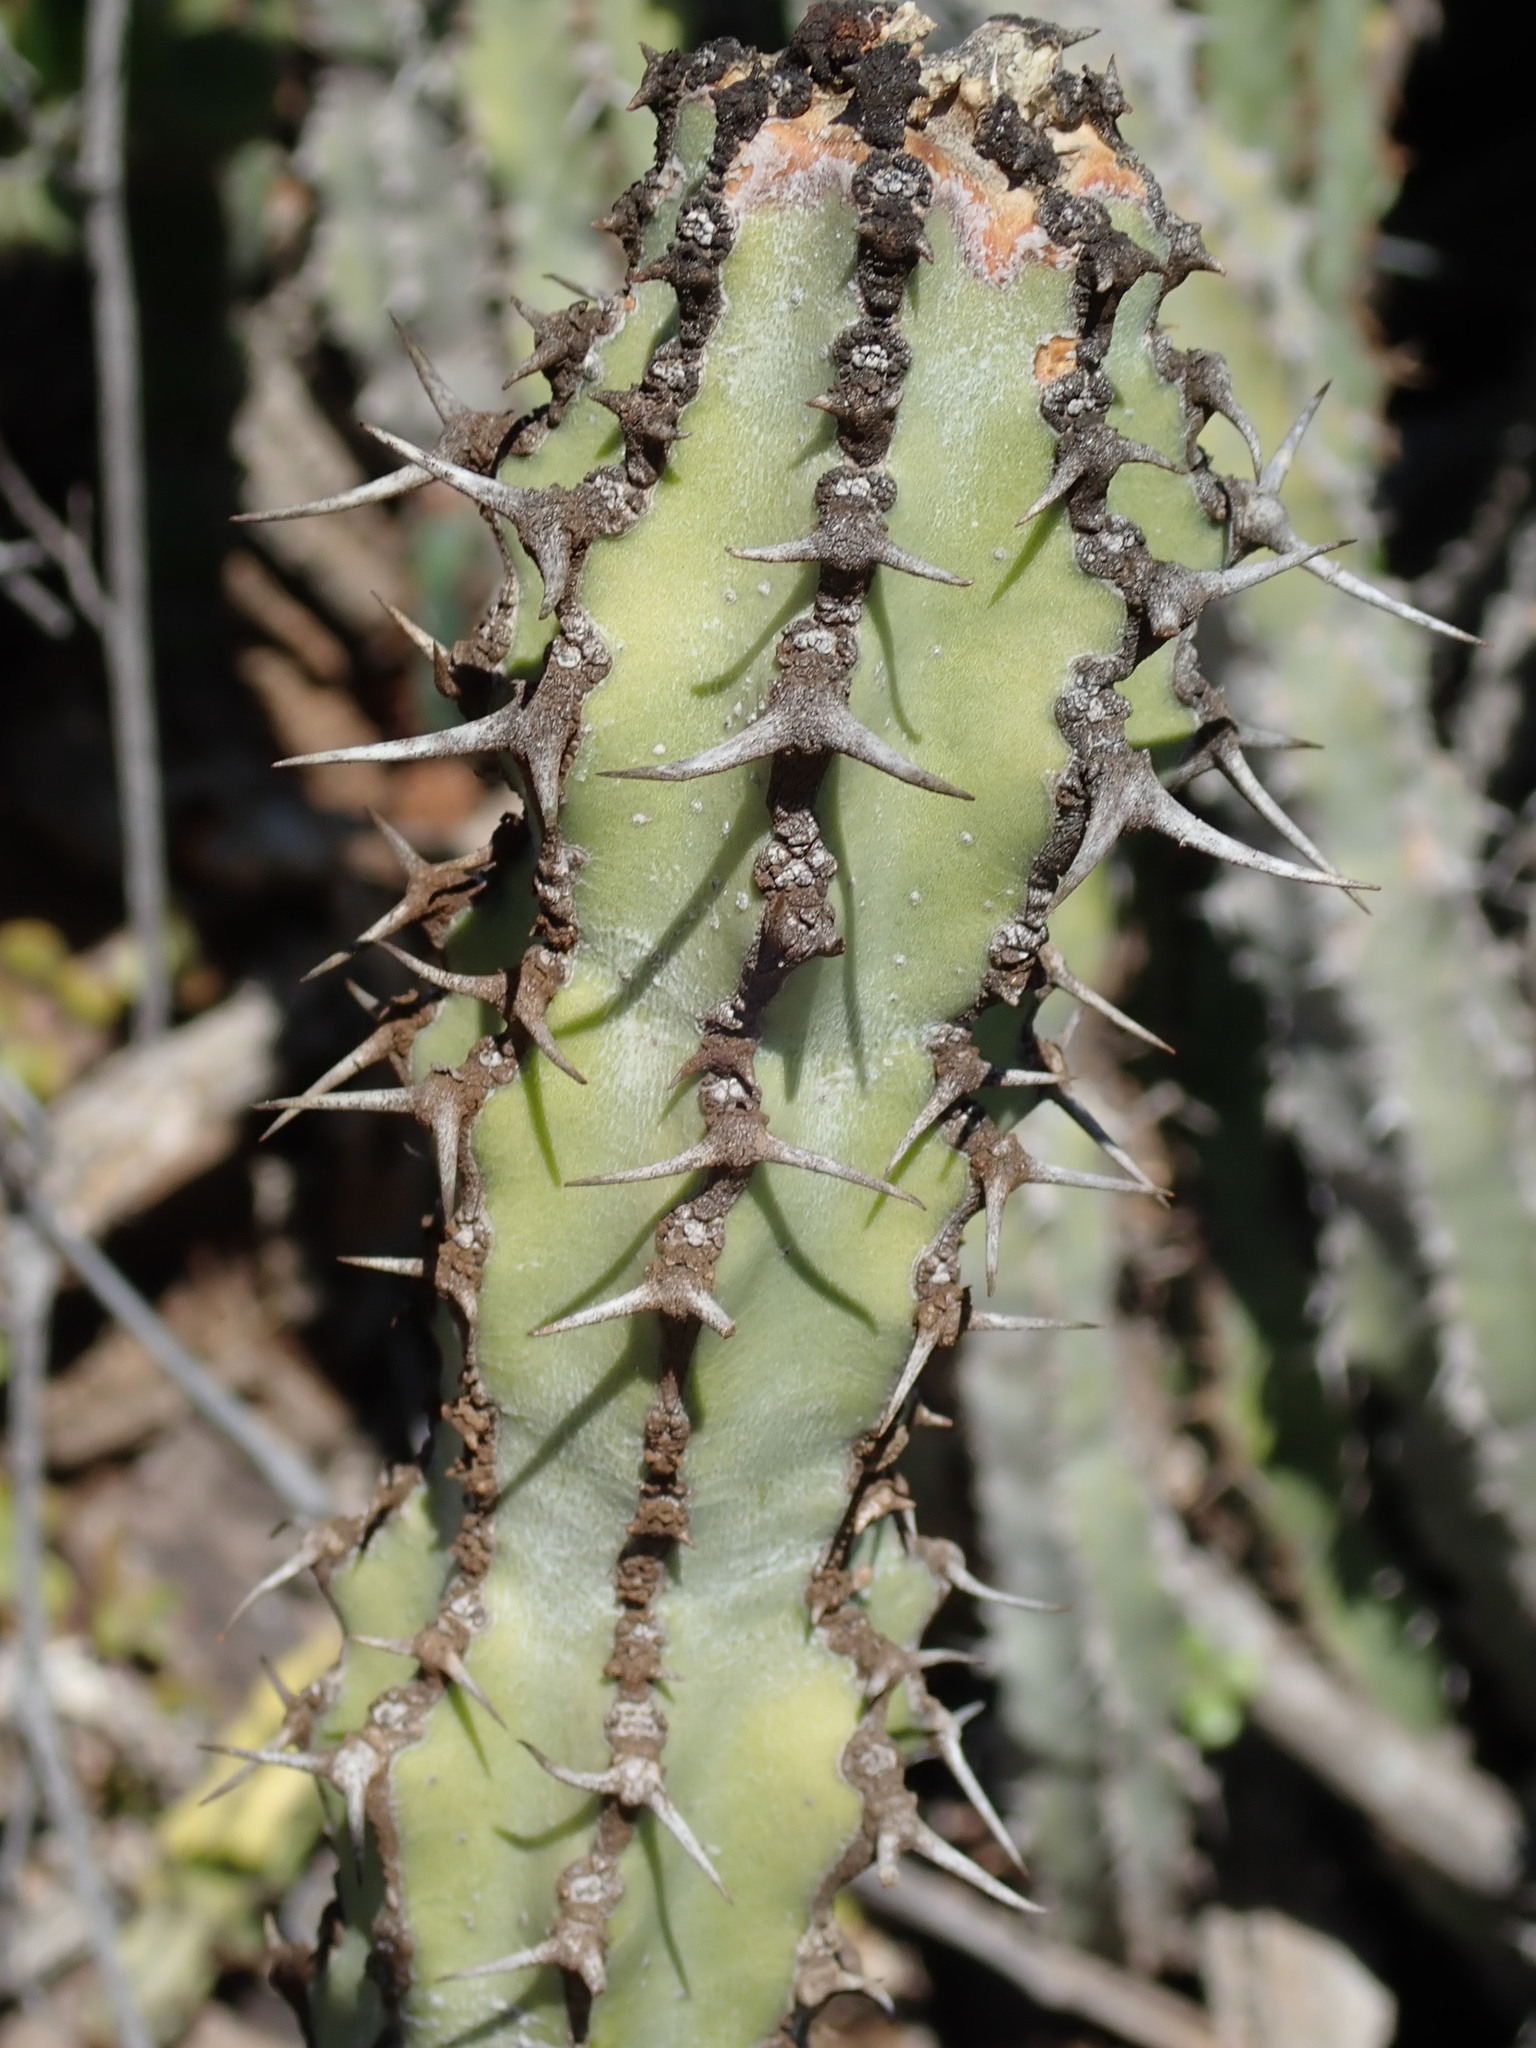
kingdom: Plantae
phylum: Tracheophyta
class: Magnoliopsida
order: Malpighiales
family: Euphorbiaceae
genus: Euphorbia
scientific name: Euphorbia radyeri
